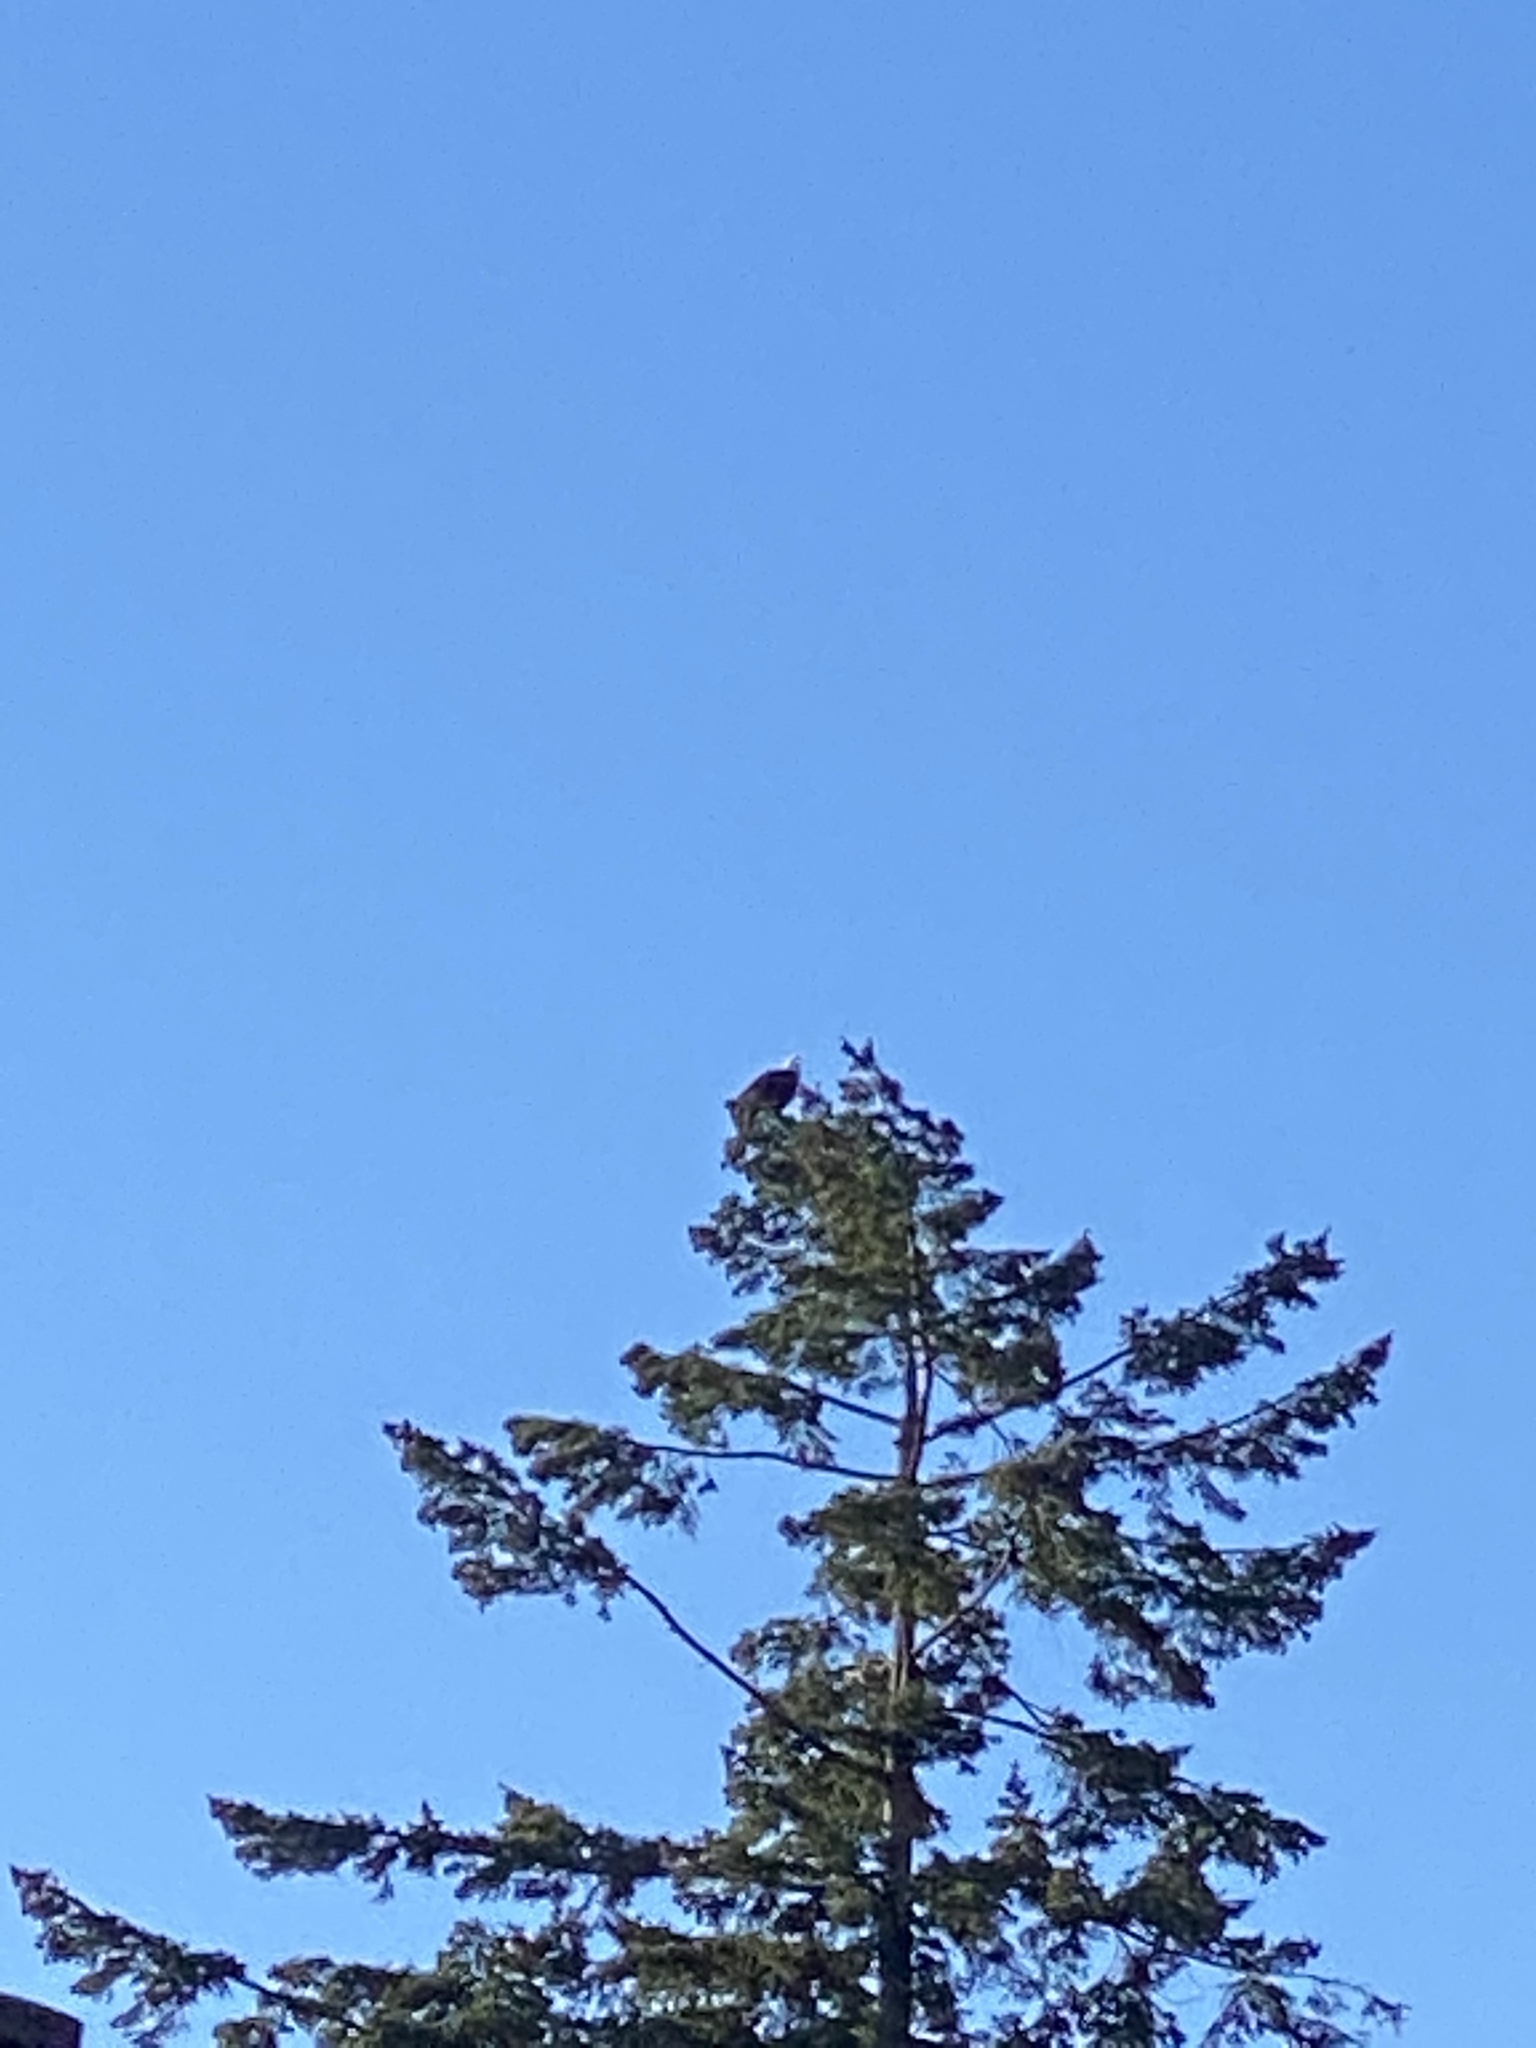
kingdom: Animalia
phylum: Chordata
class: Aves
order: Accipitriformes
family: Accipitridae
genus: Haliaeetus
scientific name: Haliaeetus leucocephalus
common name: Bald eagle
